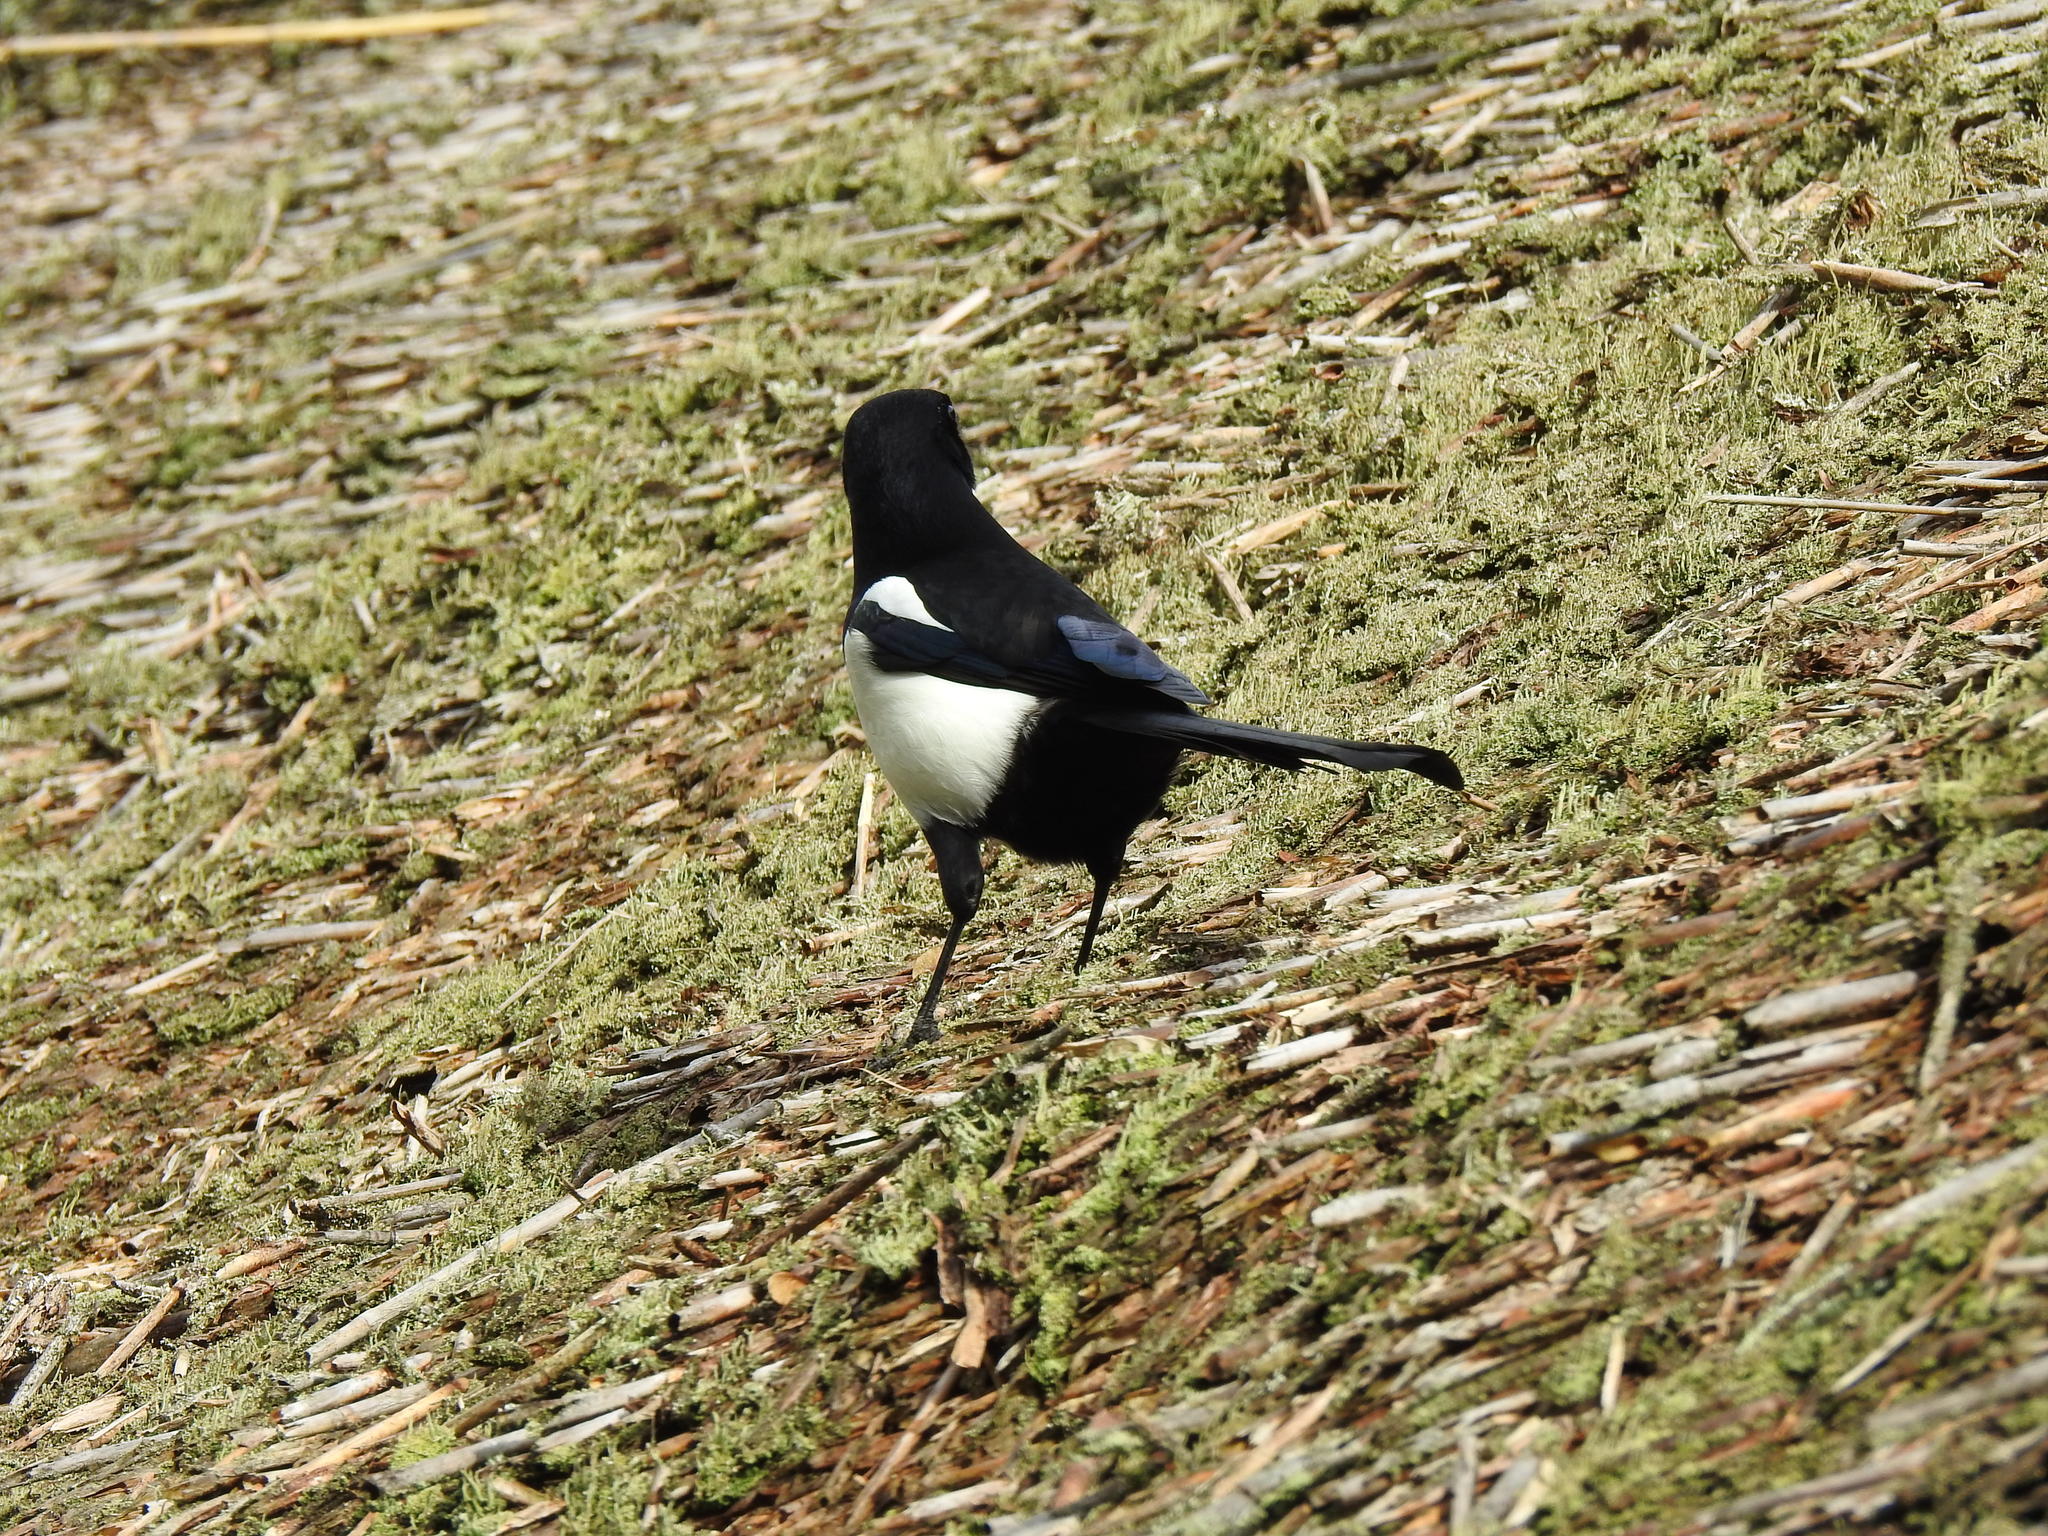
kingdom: Animalia
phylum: Chordata
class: Aves
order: Passeriformes
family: Corvidae
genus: Pica
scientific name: Pica pica
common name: Eurasian magpie
